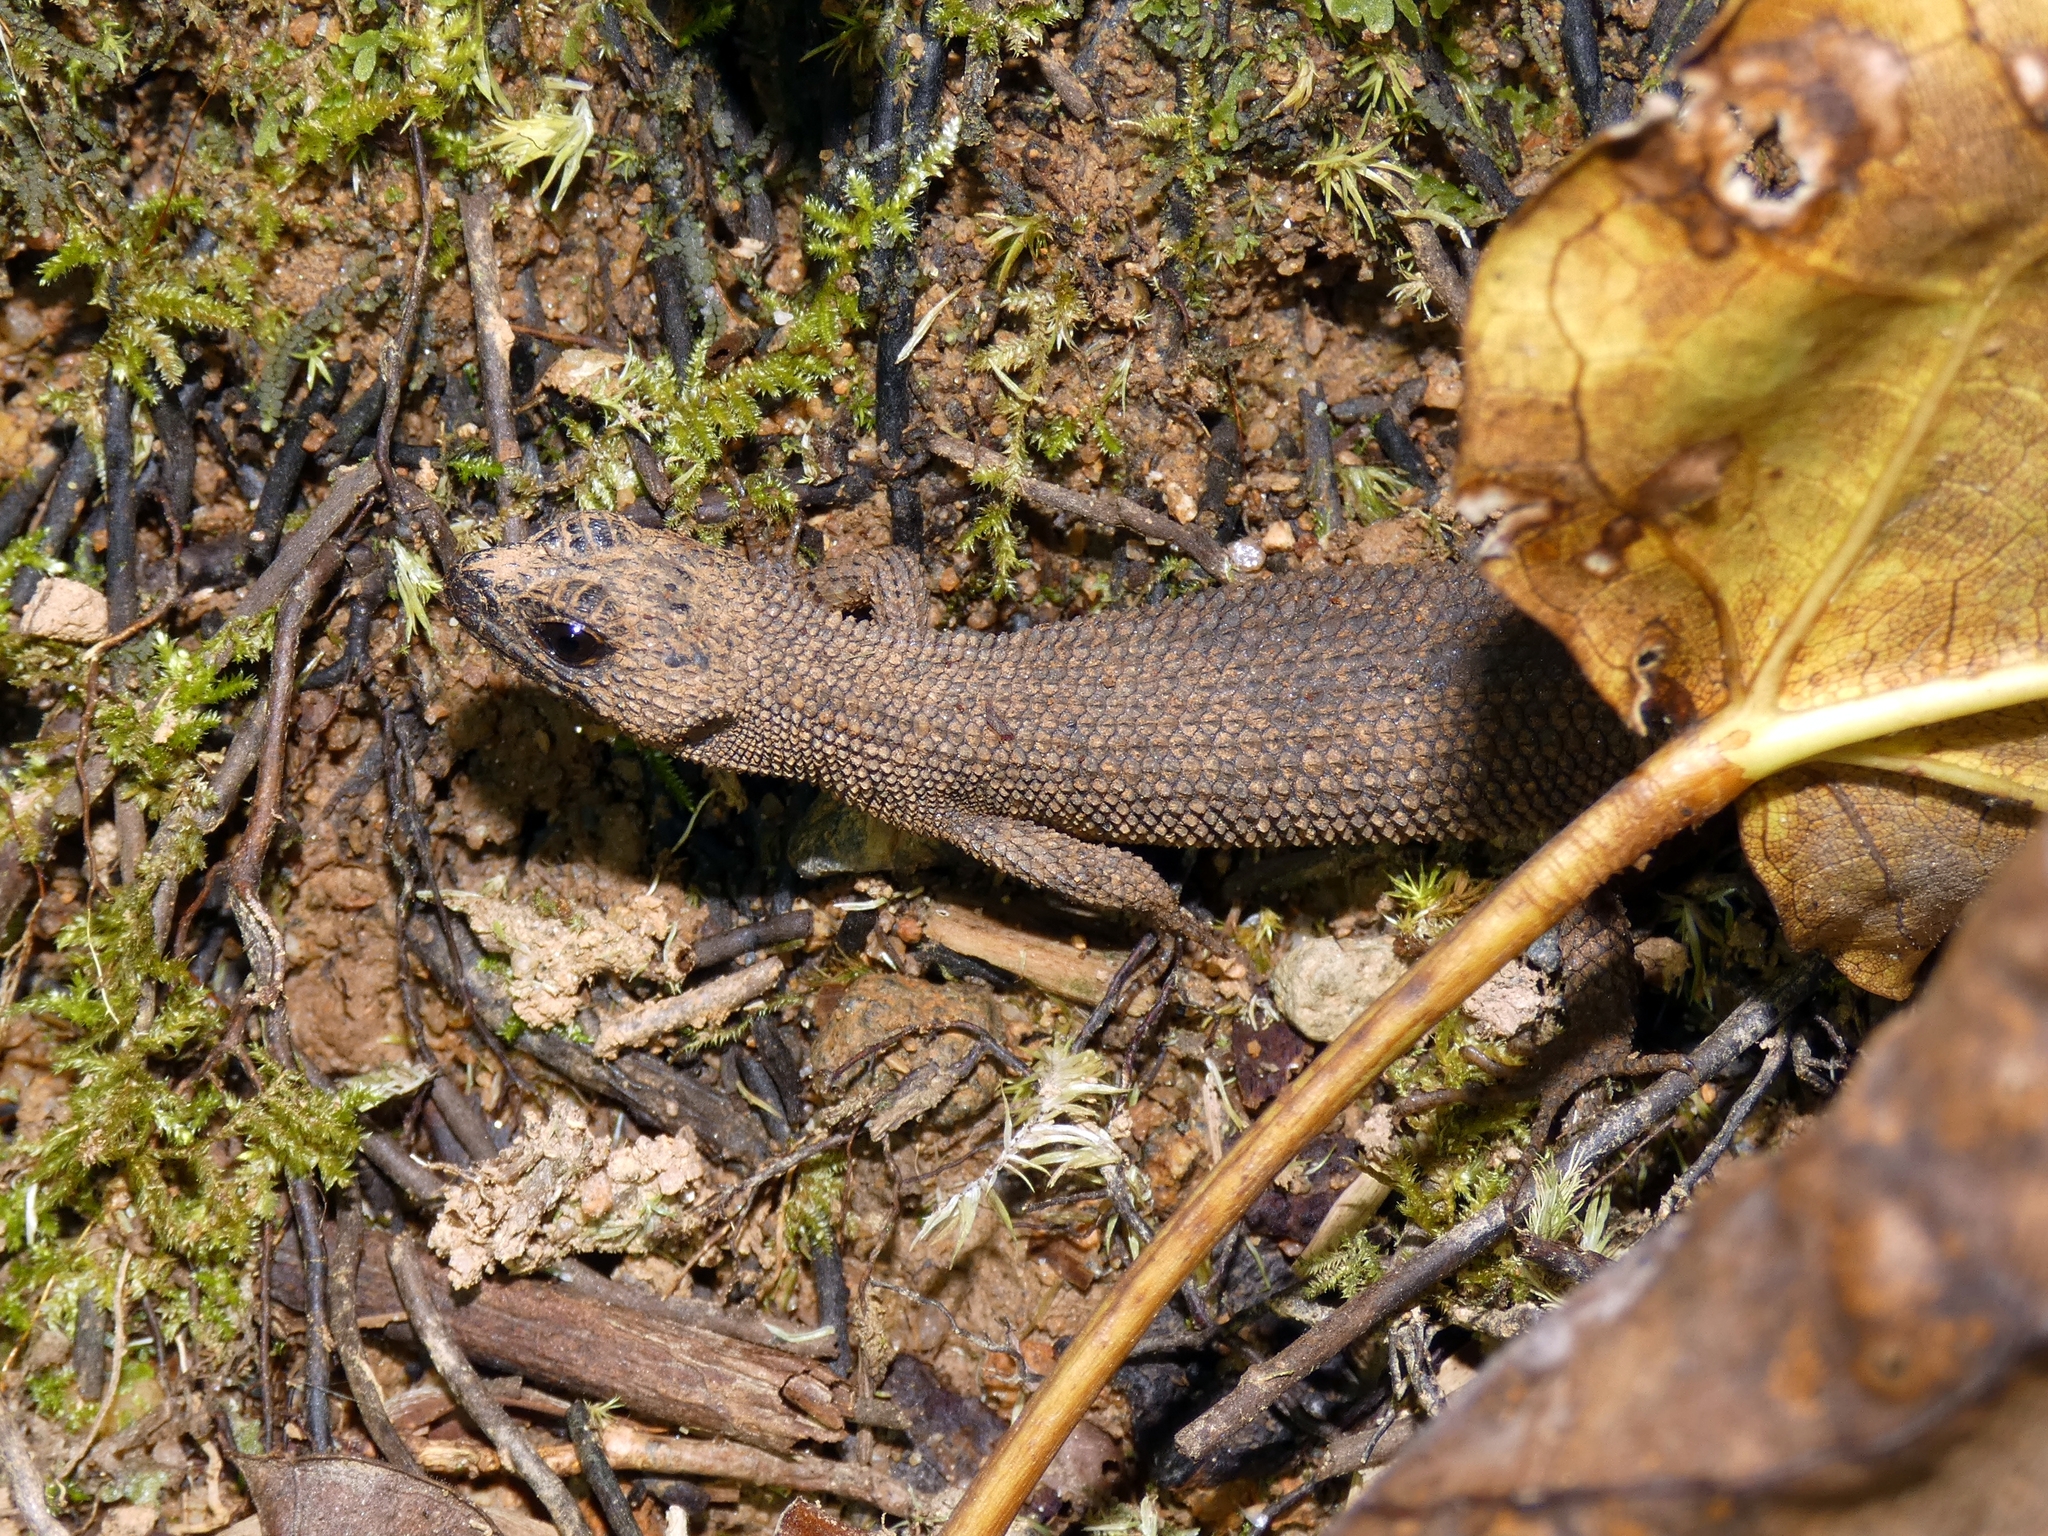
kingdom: Animalia
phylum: Chordata
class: Squamata
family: Scincidae
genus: Gnypetoscincus
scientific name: Gnypetoscincus queenslandiae
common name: Prickly forest skink
